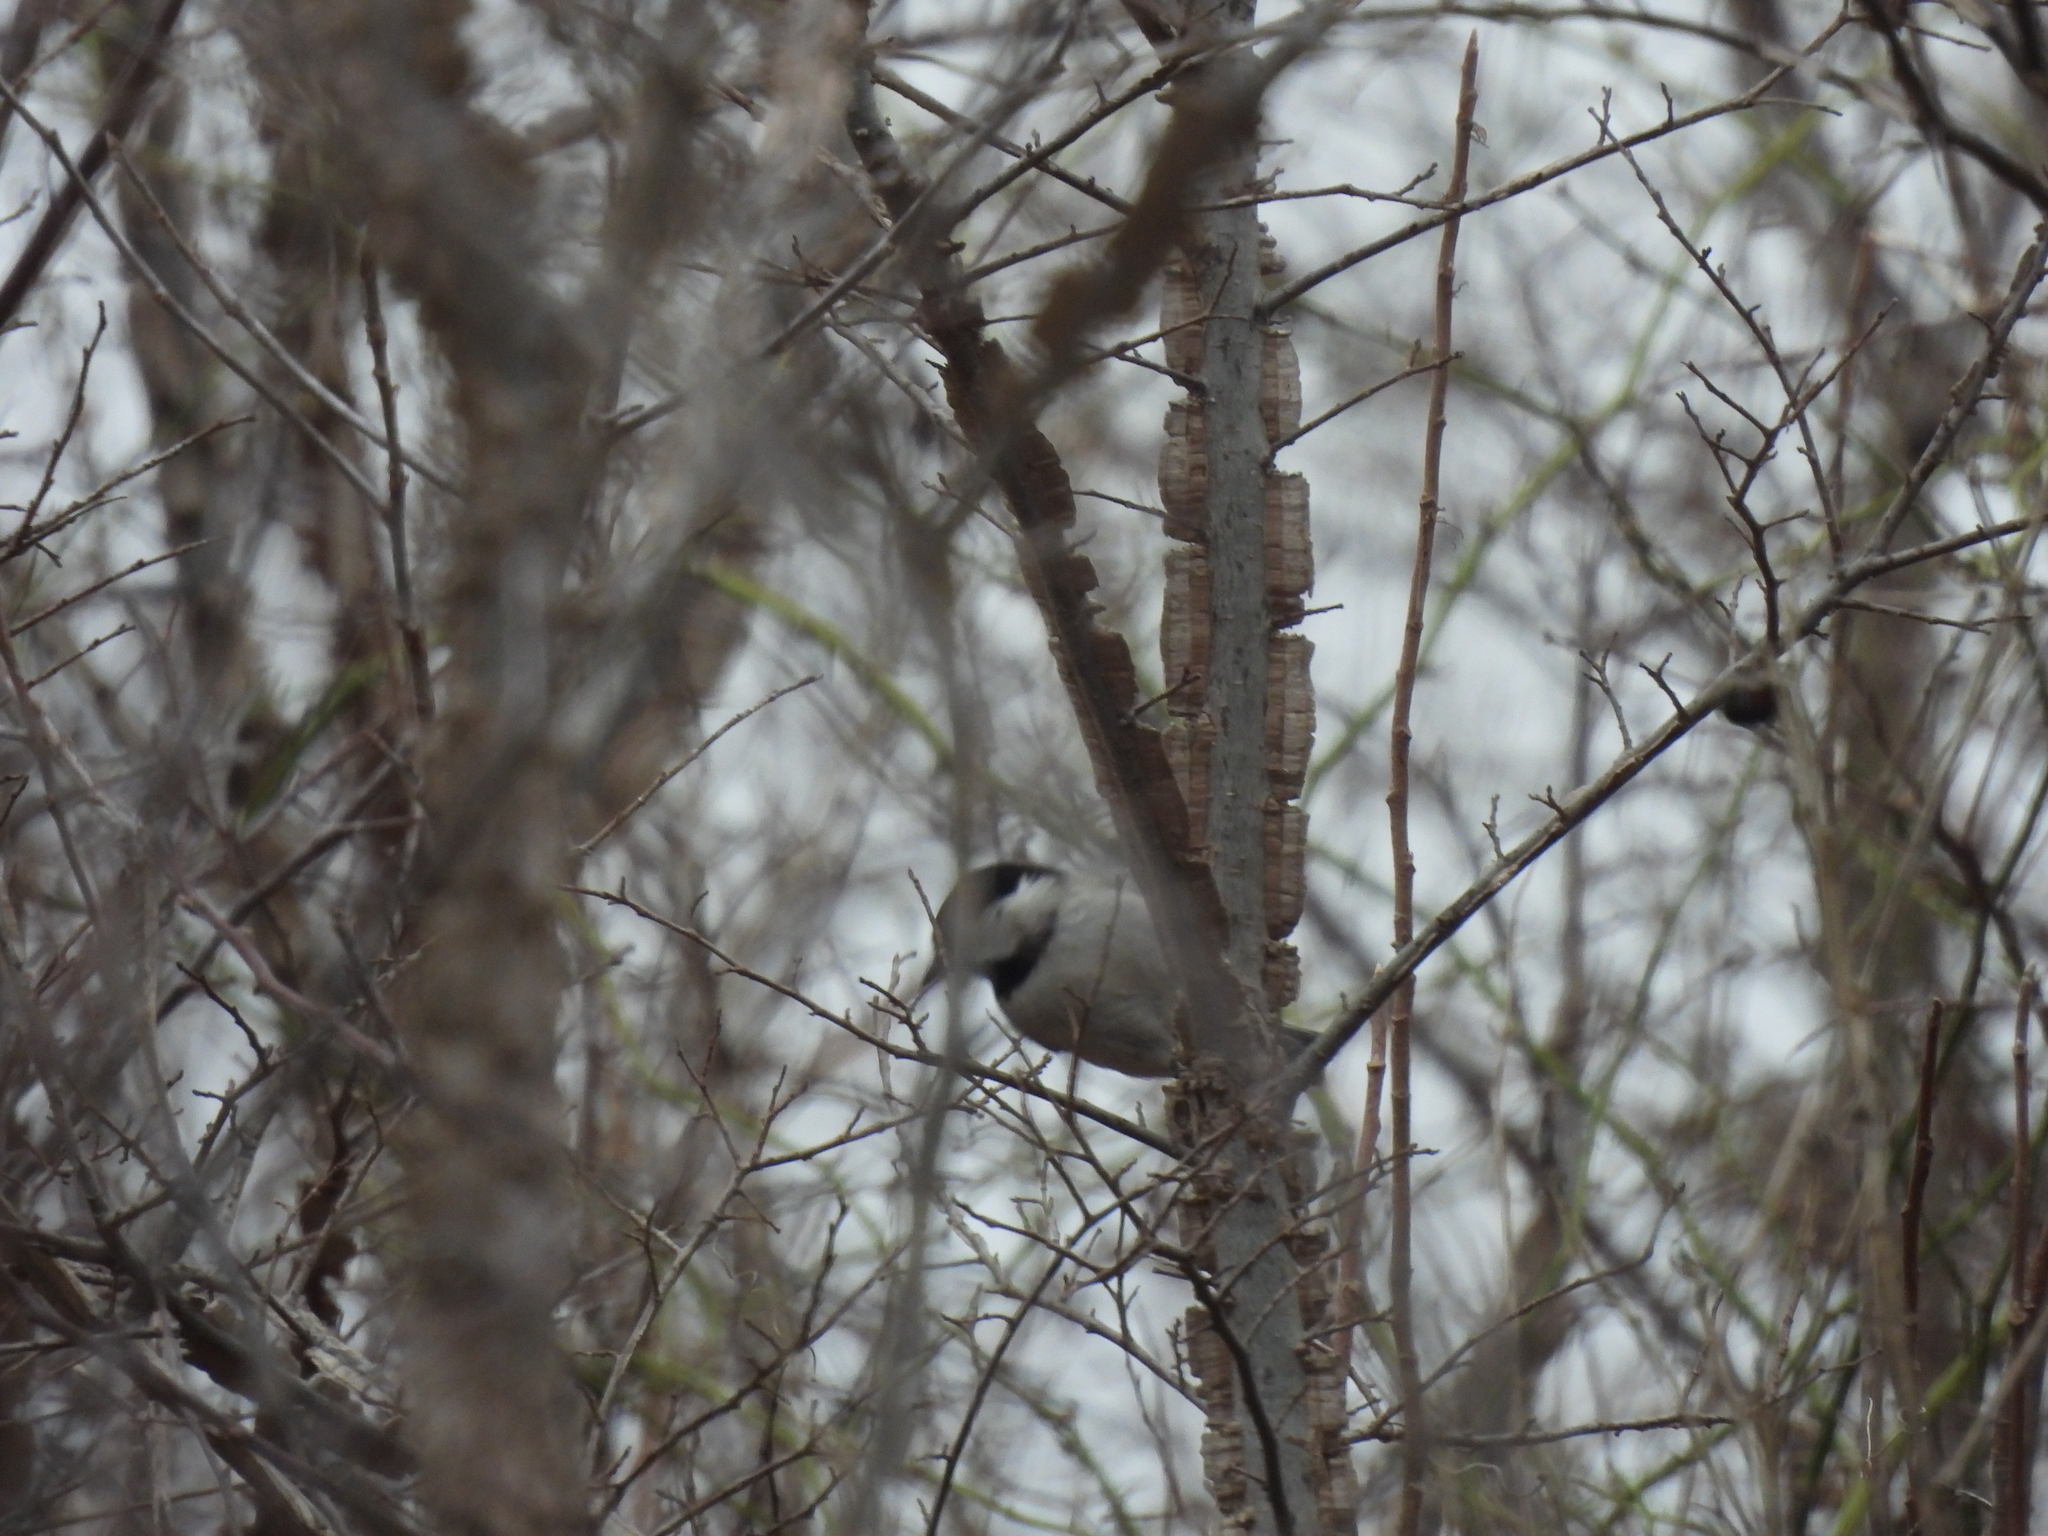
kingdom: Animalia
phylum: Chordata
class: Aves
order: Passeriformes
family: Paridae
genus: Poecile
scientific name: Poecile carolinensis
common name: Carolina chickadee
